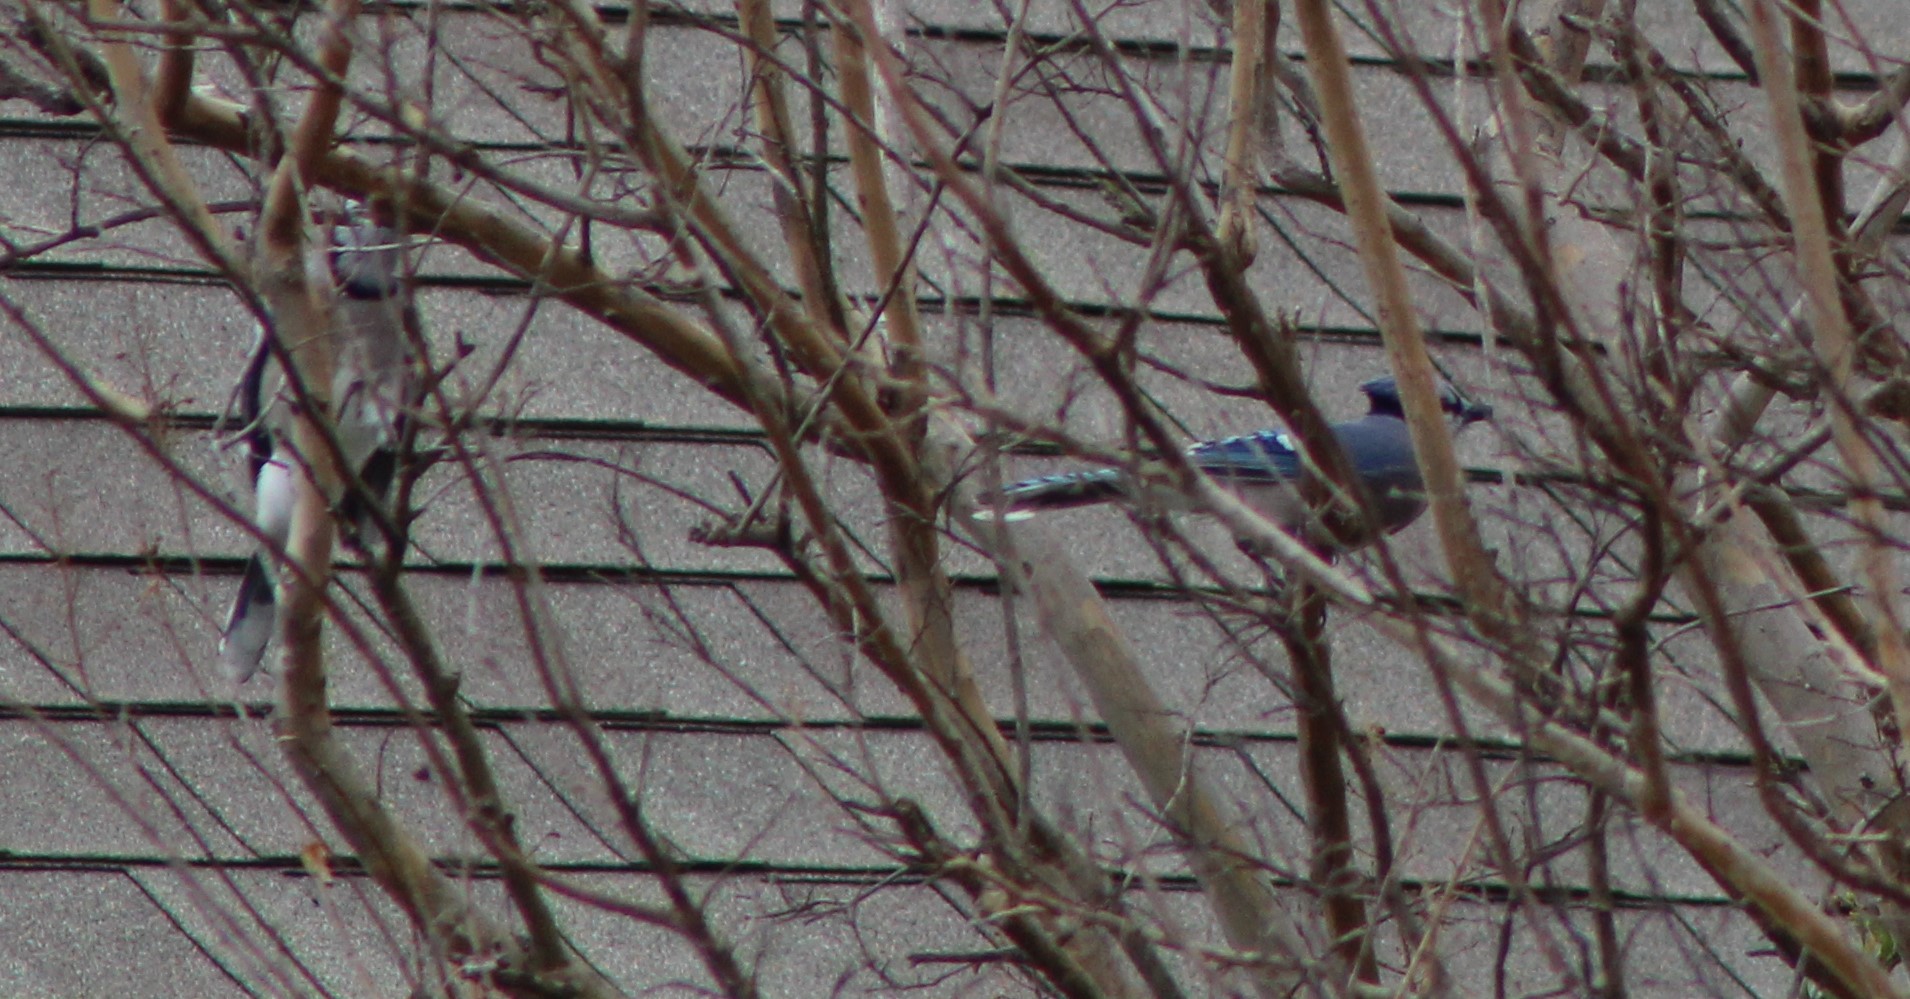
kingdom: Animalia
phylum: Chordata
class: Aves
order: Passeriformes
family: Corvidae
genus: Cyanocitta
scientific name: Cyanocitta cristata
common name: Blue jay
